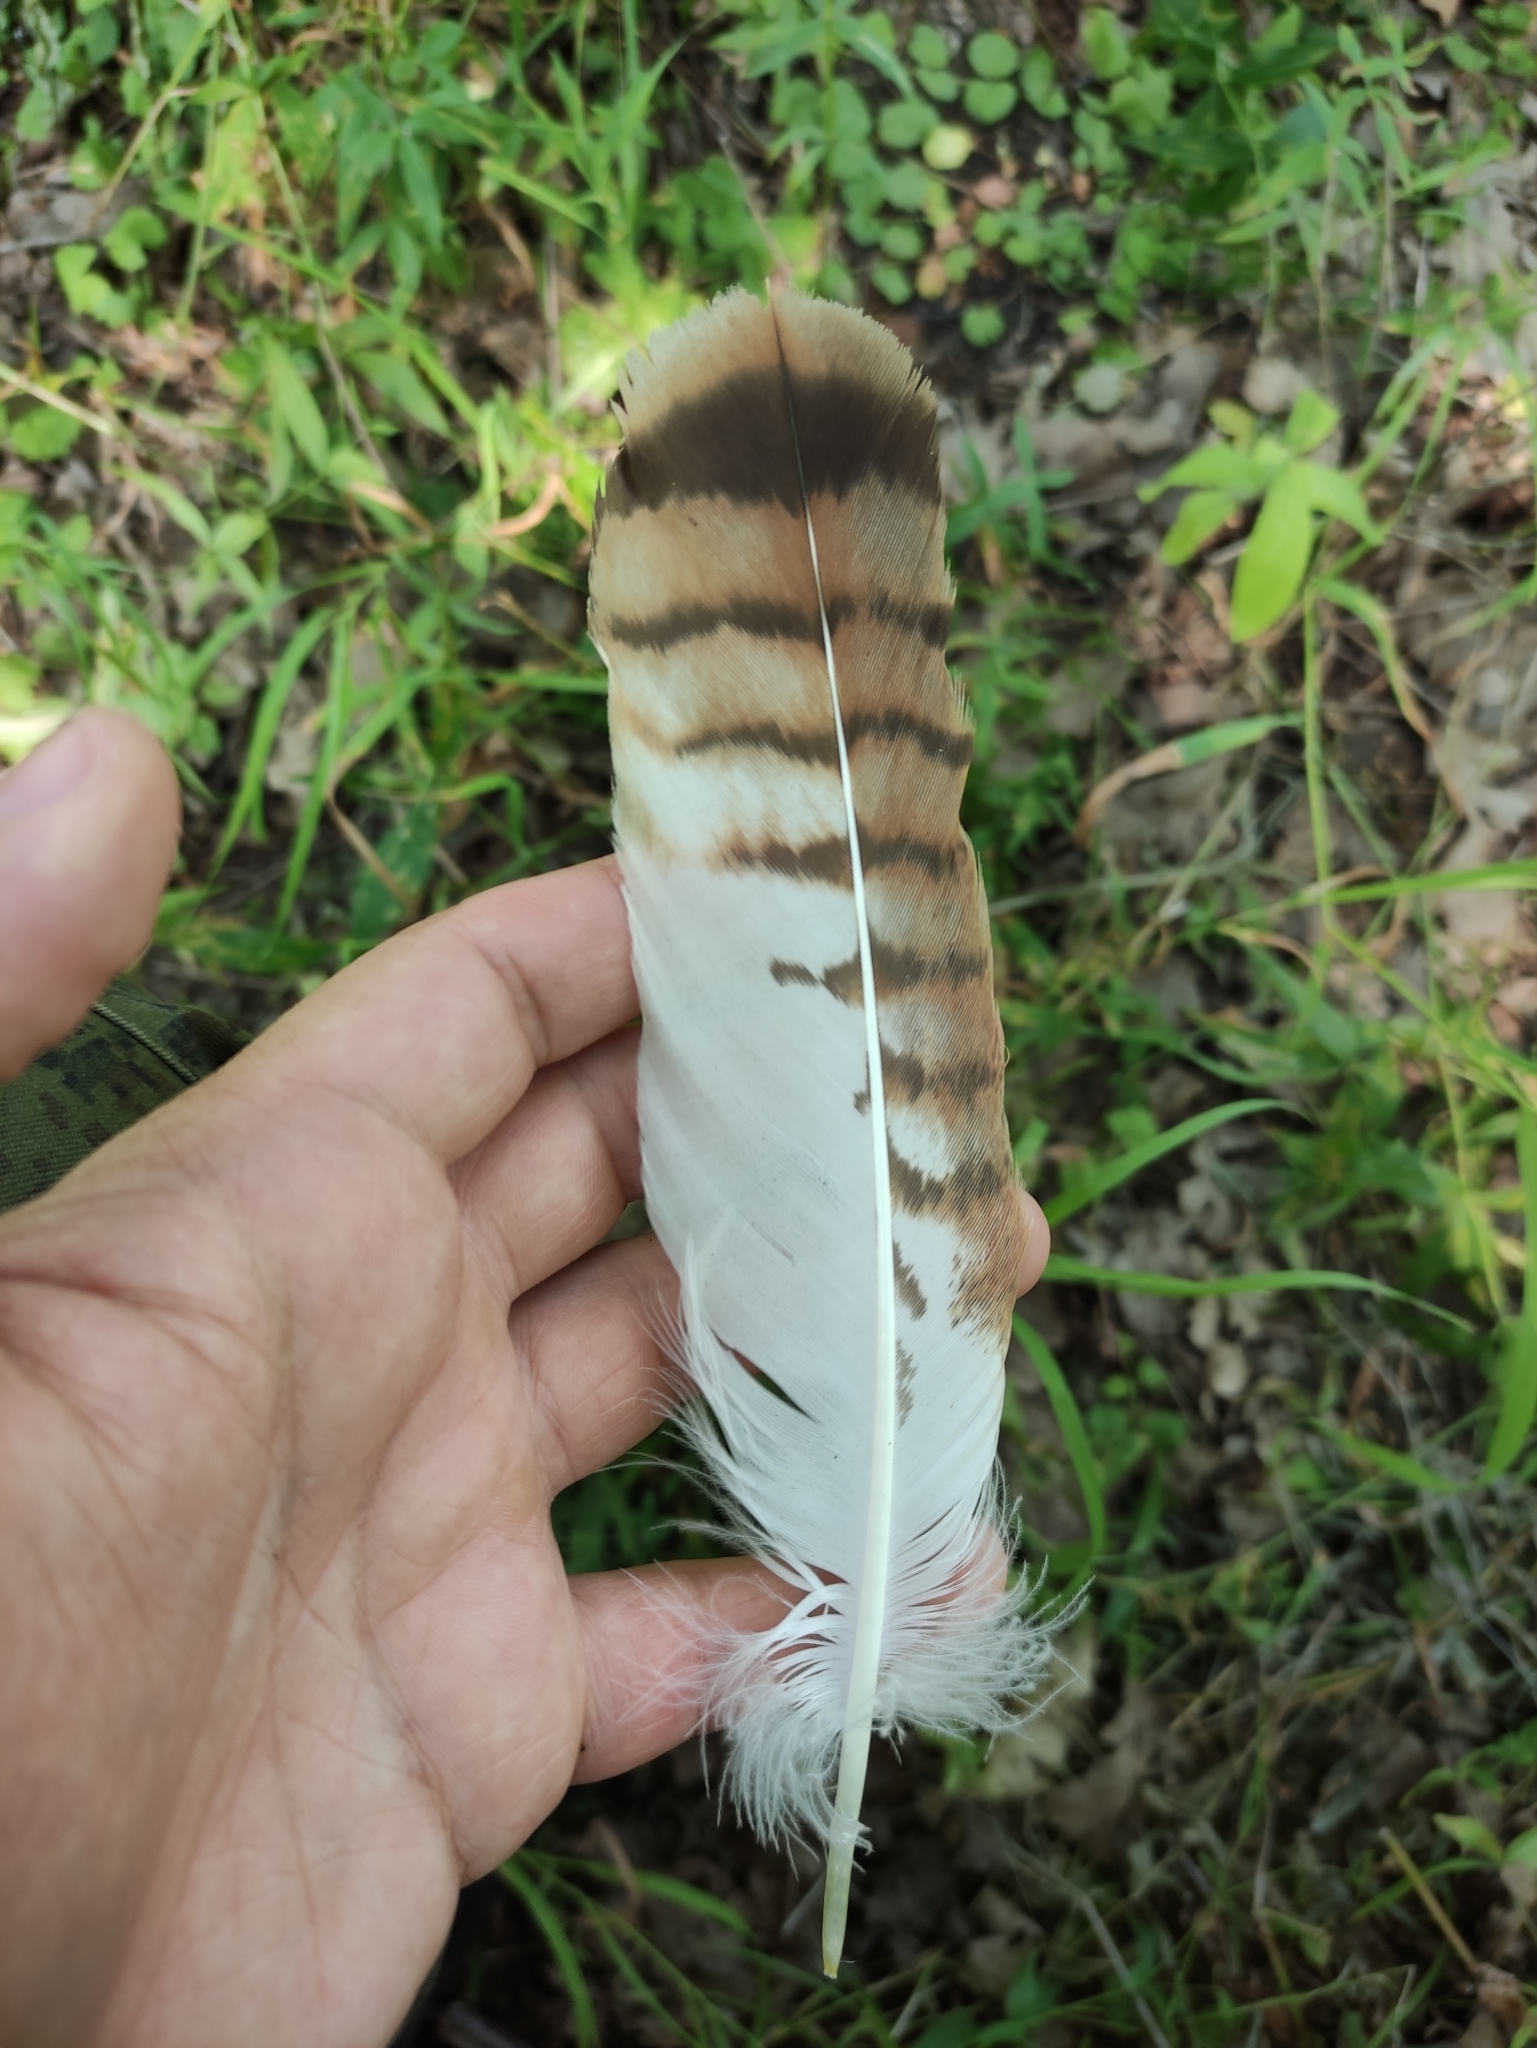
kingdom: Animalia
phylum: Chordata
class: Aves
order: Accipitriformes
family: Accipitridae
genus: Buteo
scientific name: Buteo buteo
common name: Common buzzard
